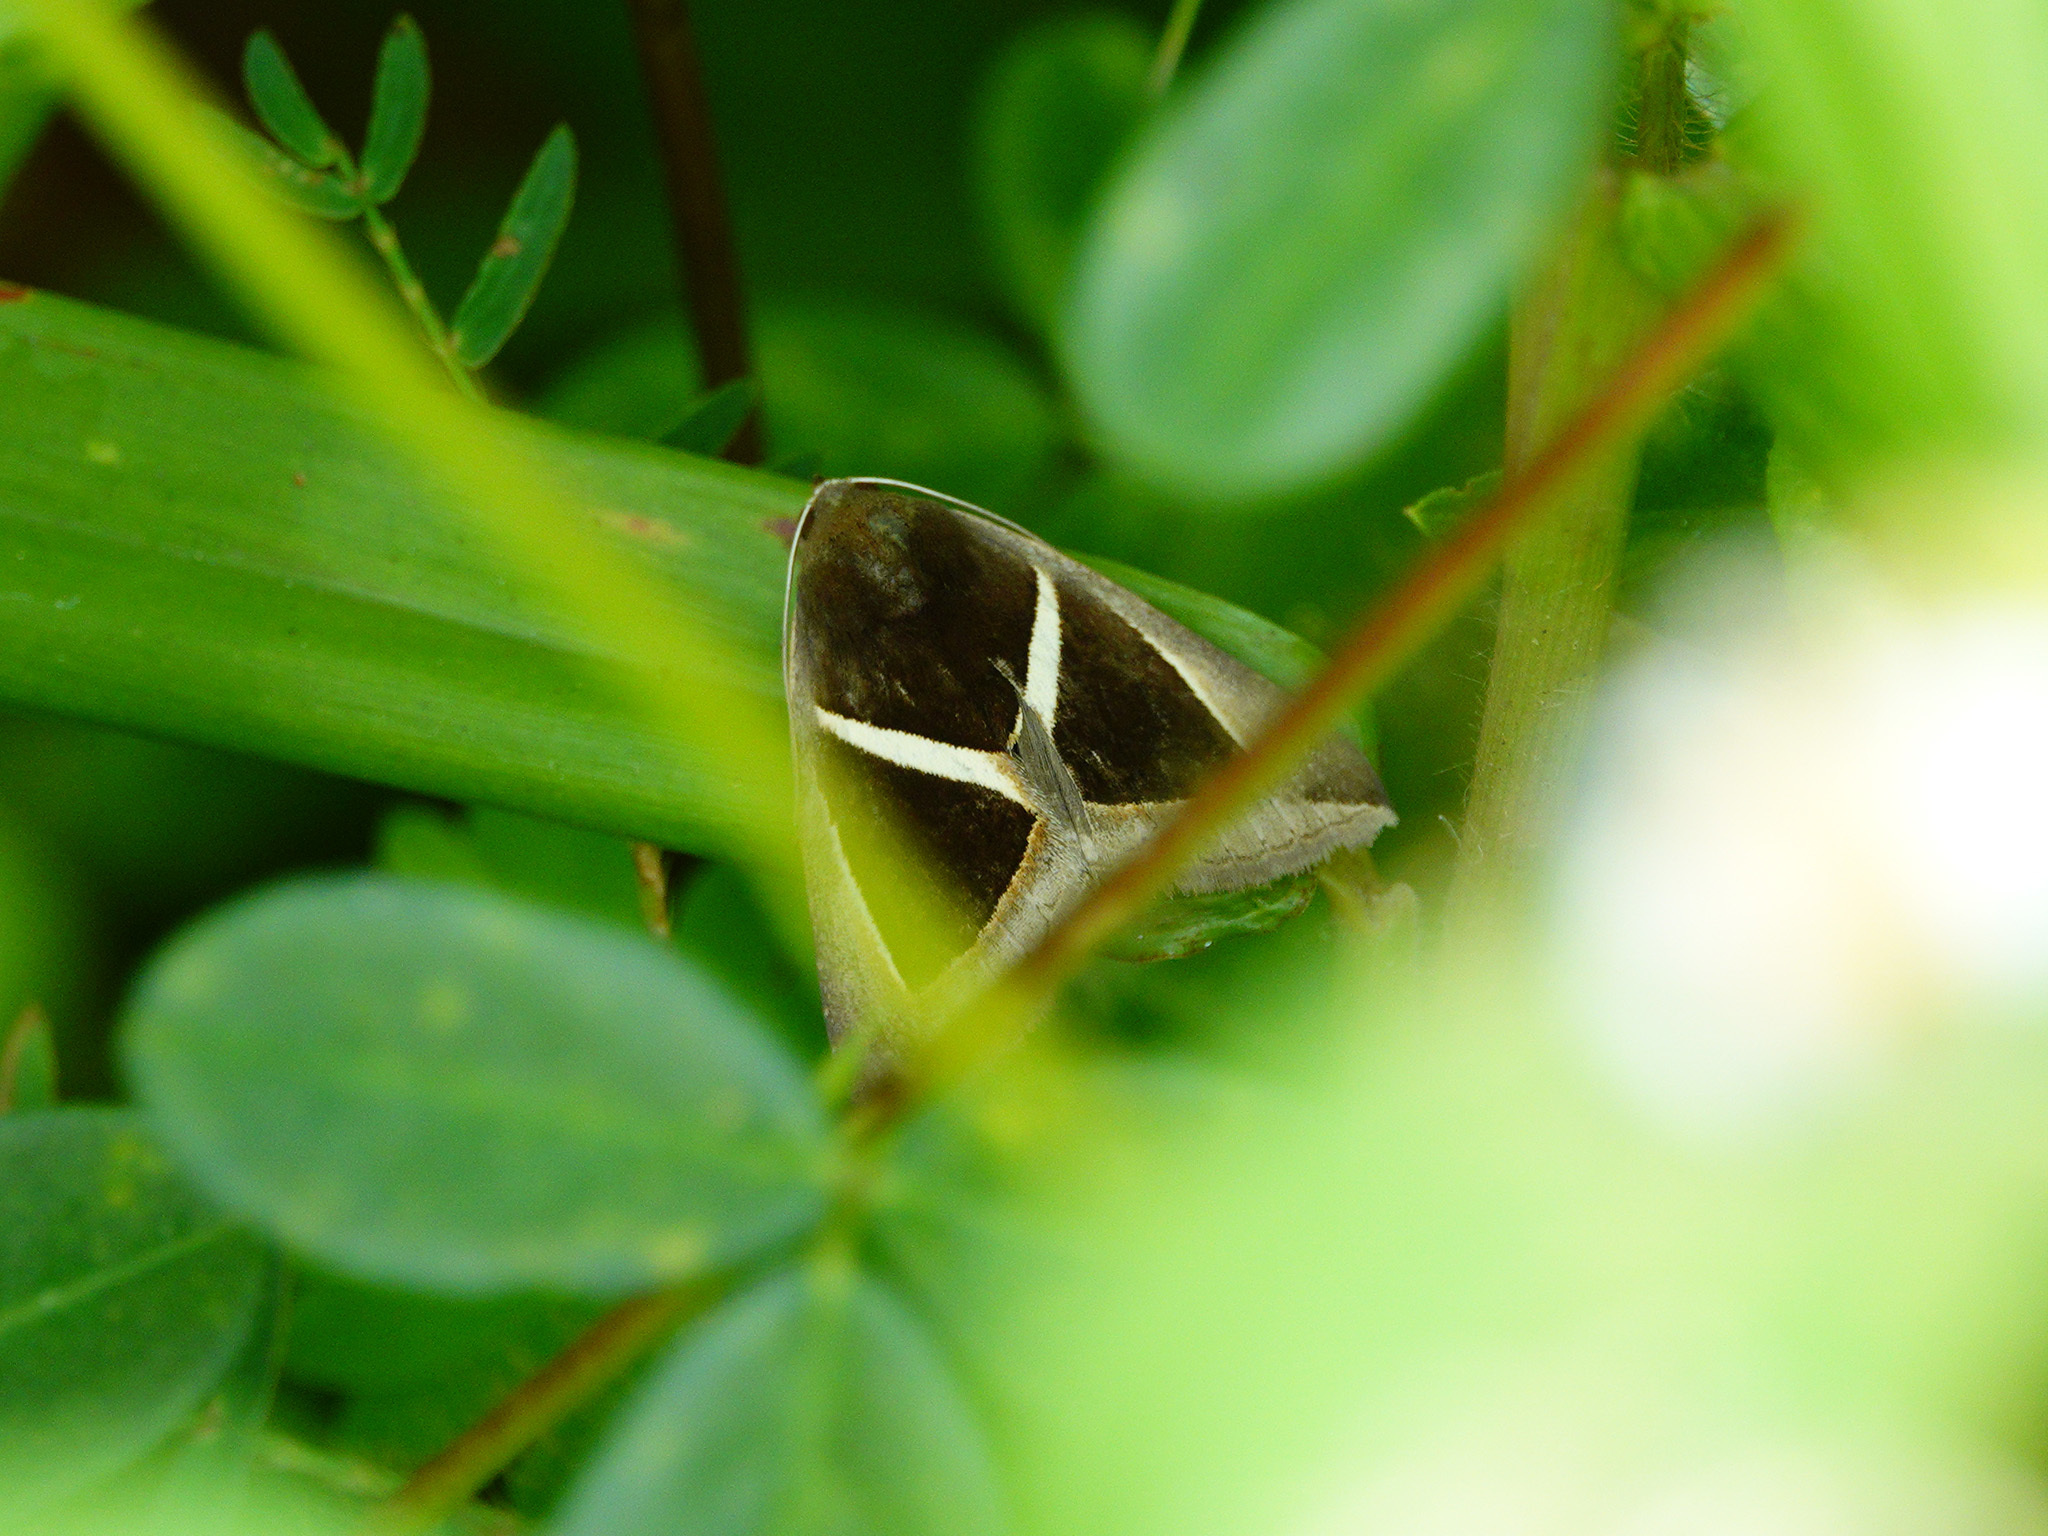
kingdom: Animalia
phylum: Arthropoda
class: Insecta
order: Lepidoptera
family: Erebidae
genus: Chalciope
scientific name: Chalciope mygdon
